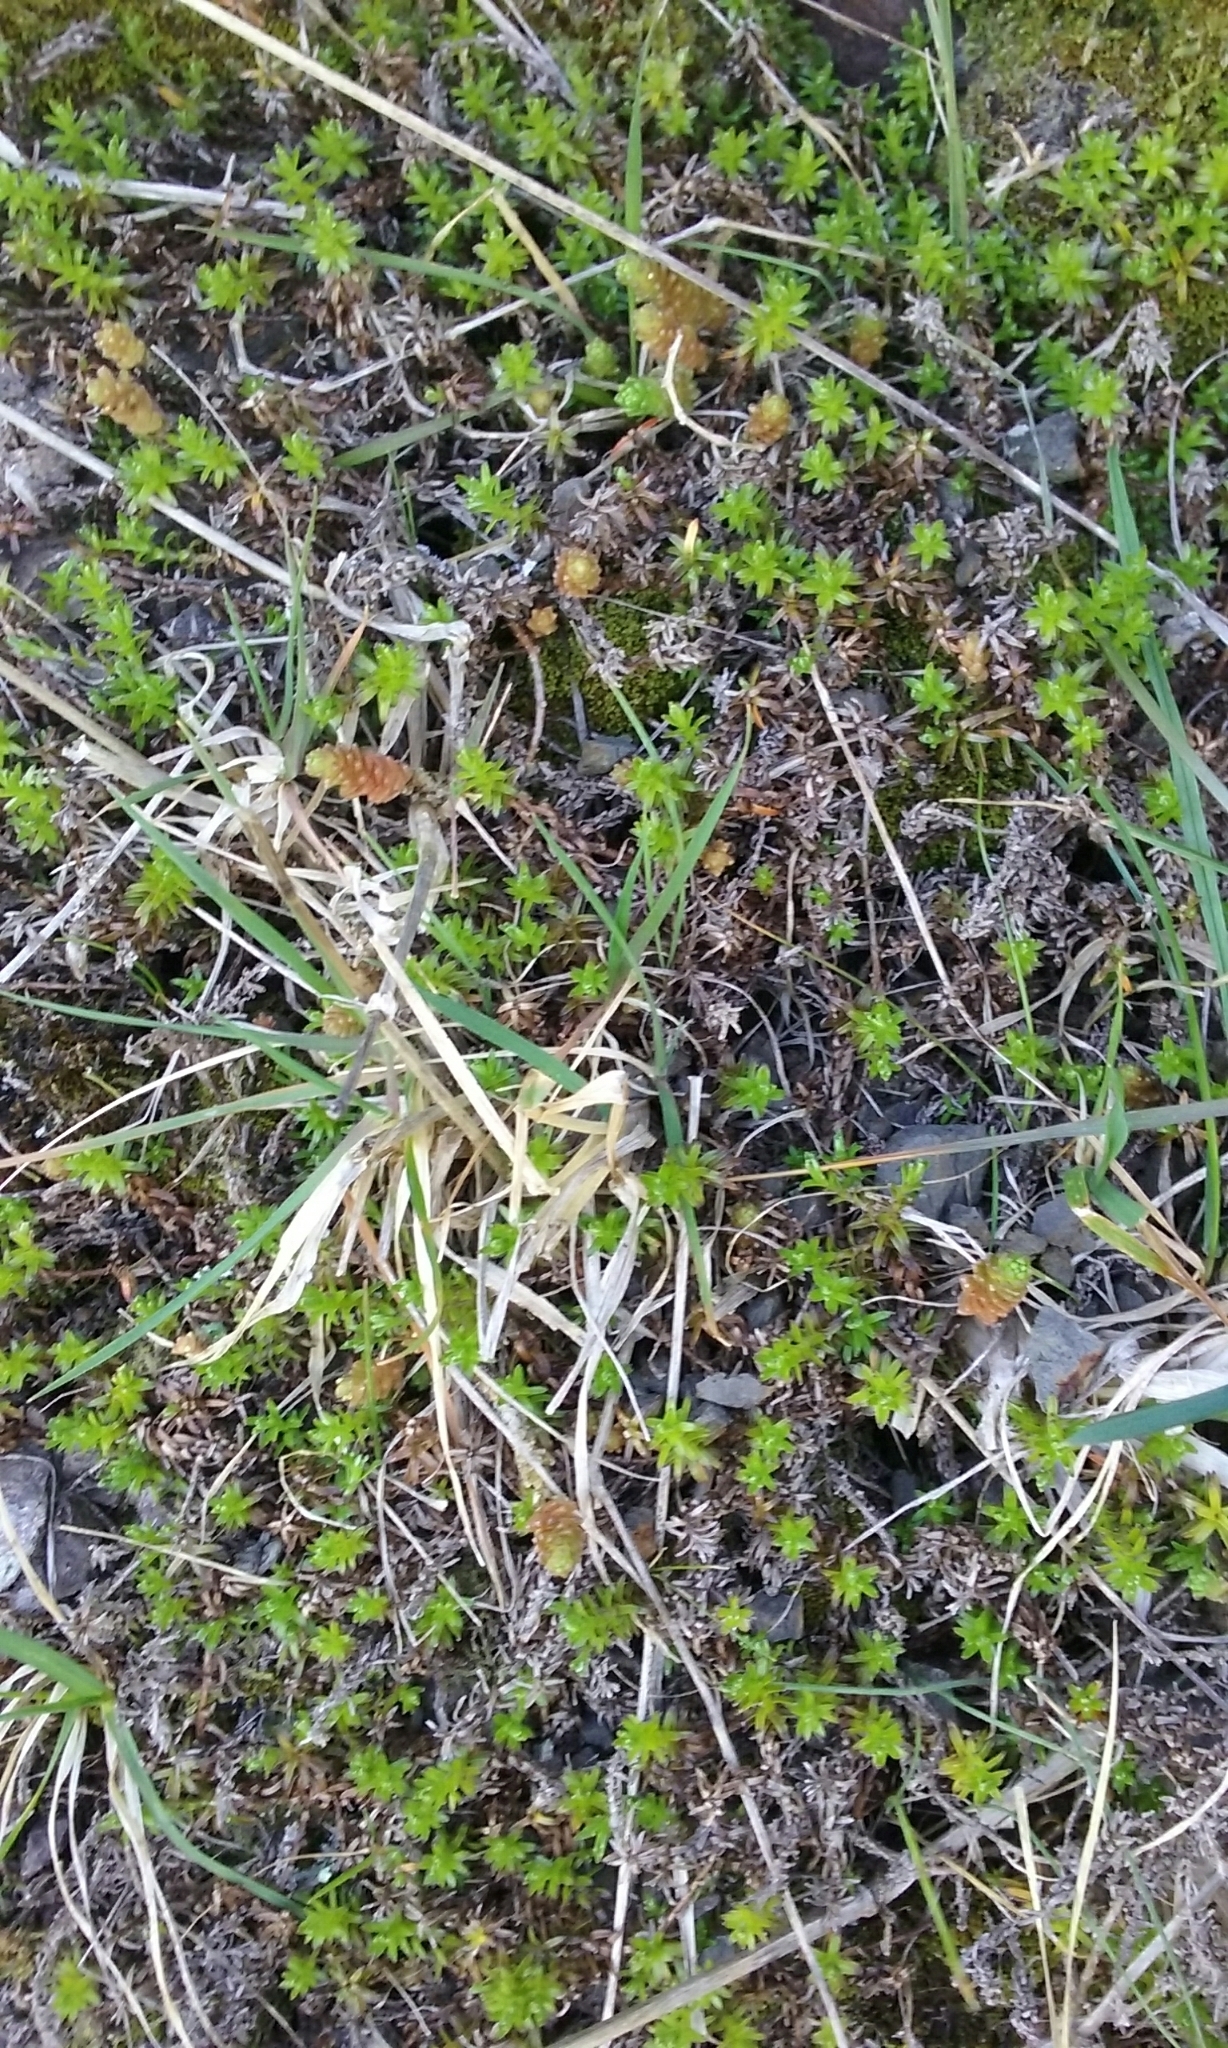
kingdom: Plantae
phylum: Tracheophyta
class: Magnoliopsida
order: Asterales
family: Asteraceae
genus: Raoulia
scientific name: Raoulia glabra
